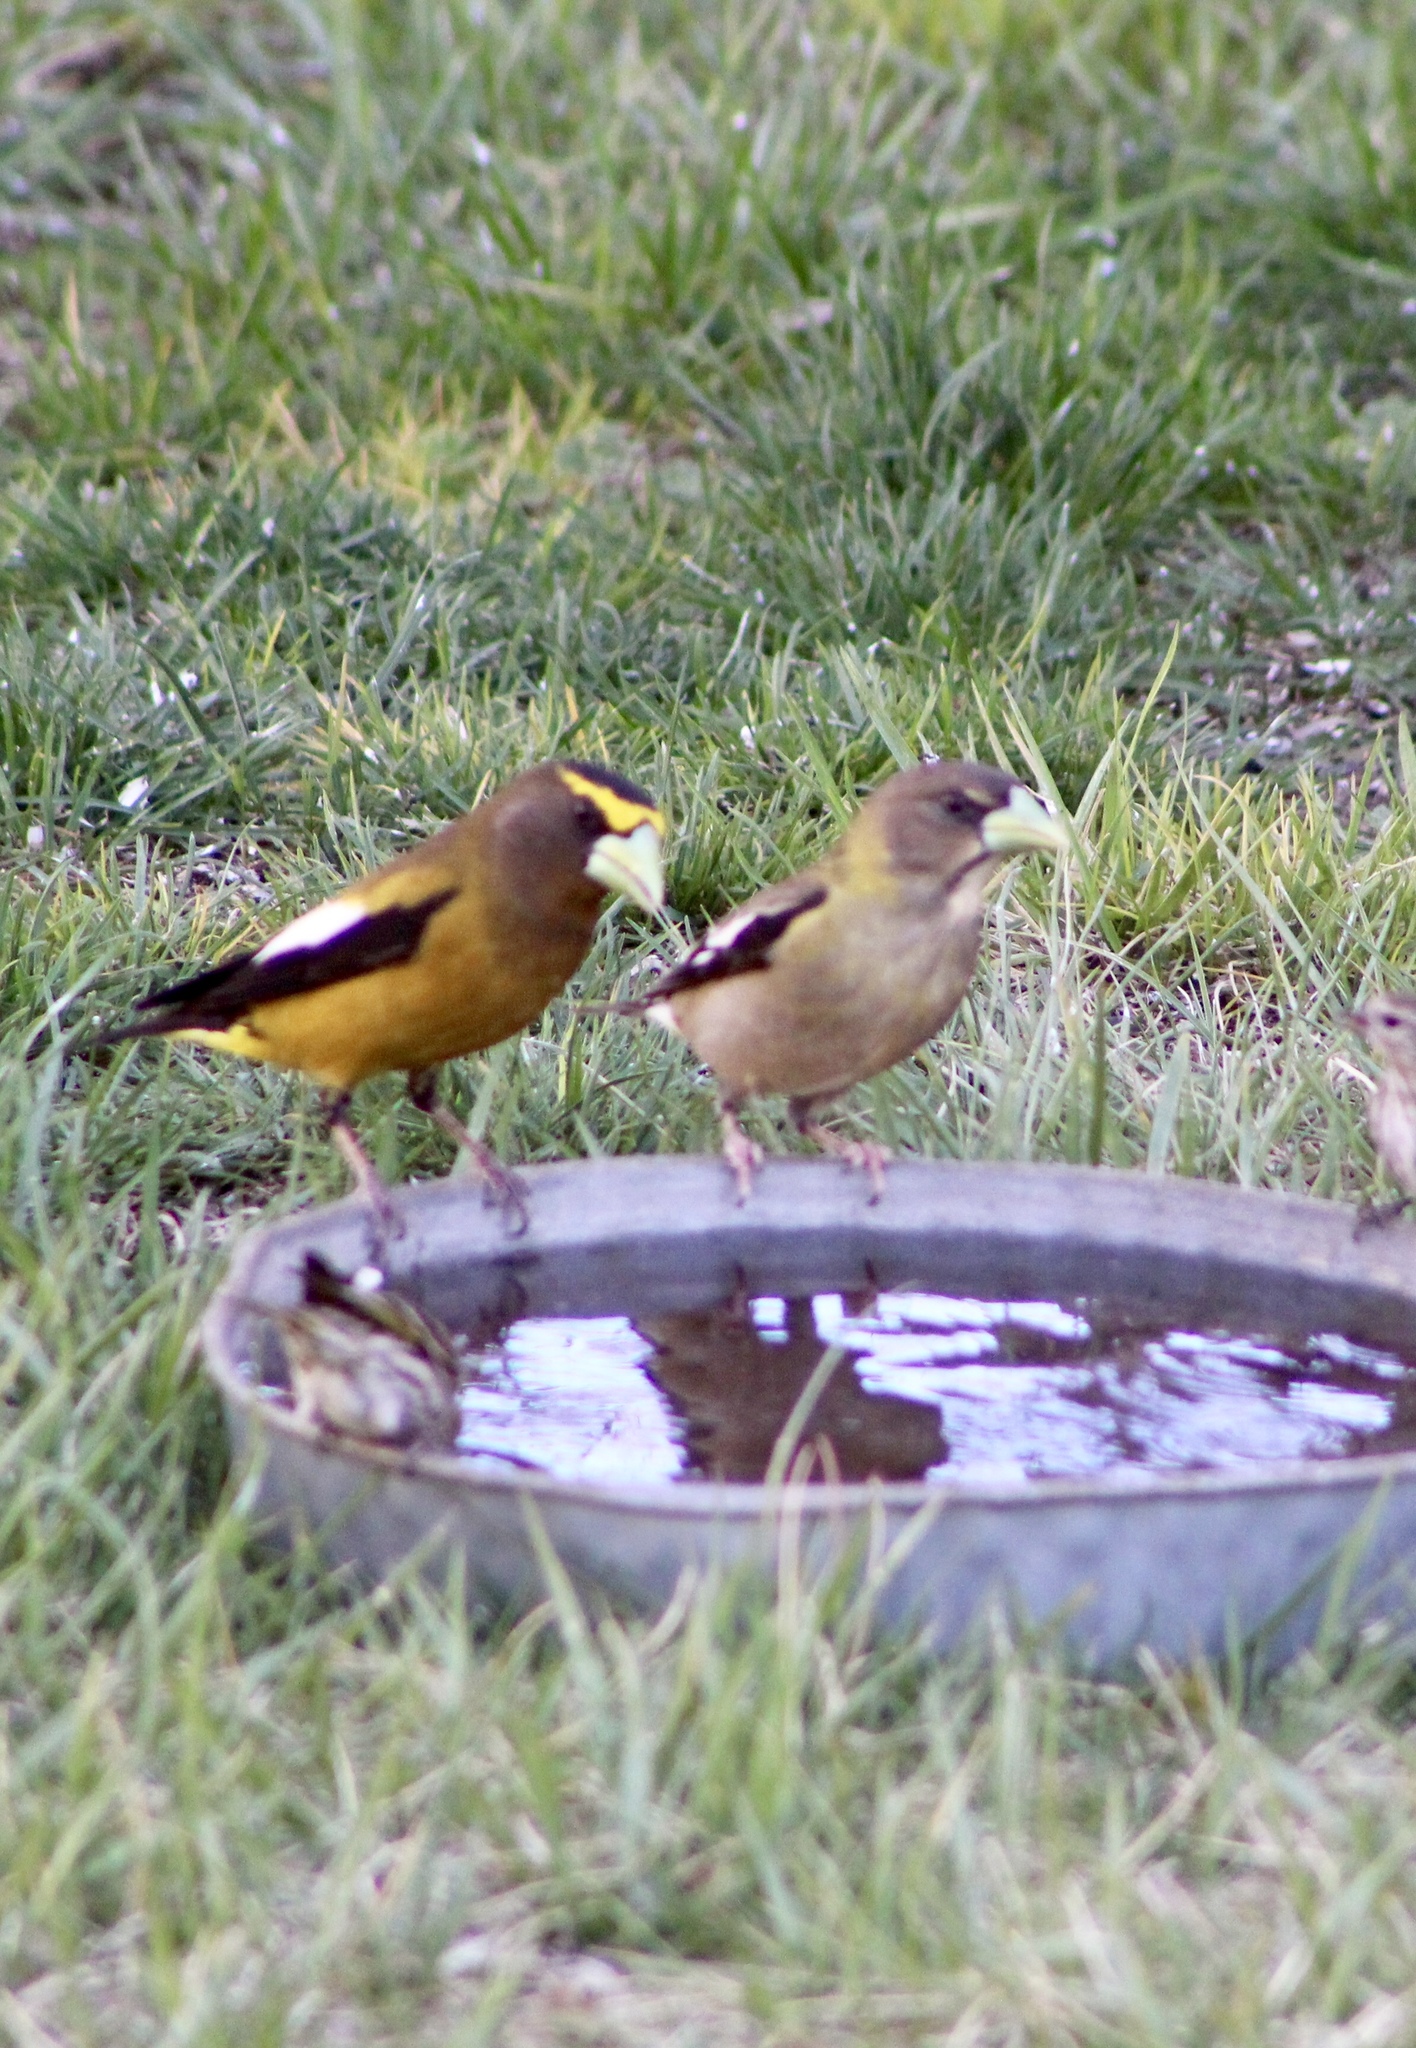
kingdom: Animalia
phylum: Chordata
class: Aves
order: Passeriformes
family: Fringillidae
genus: Hesperiphona
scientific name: Hesperiphona vespertina
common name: Evening grosbeak
